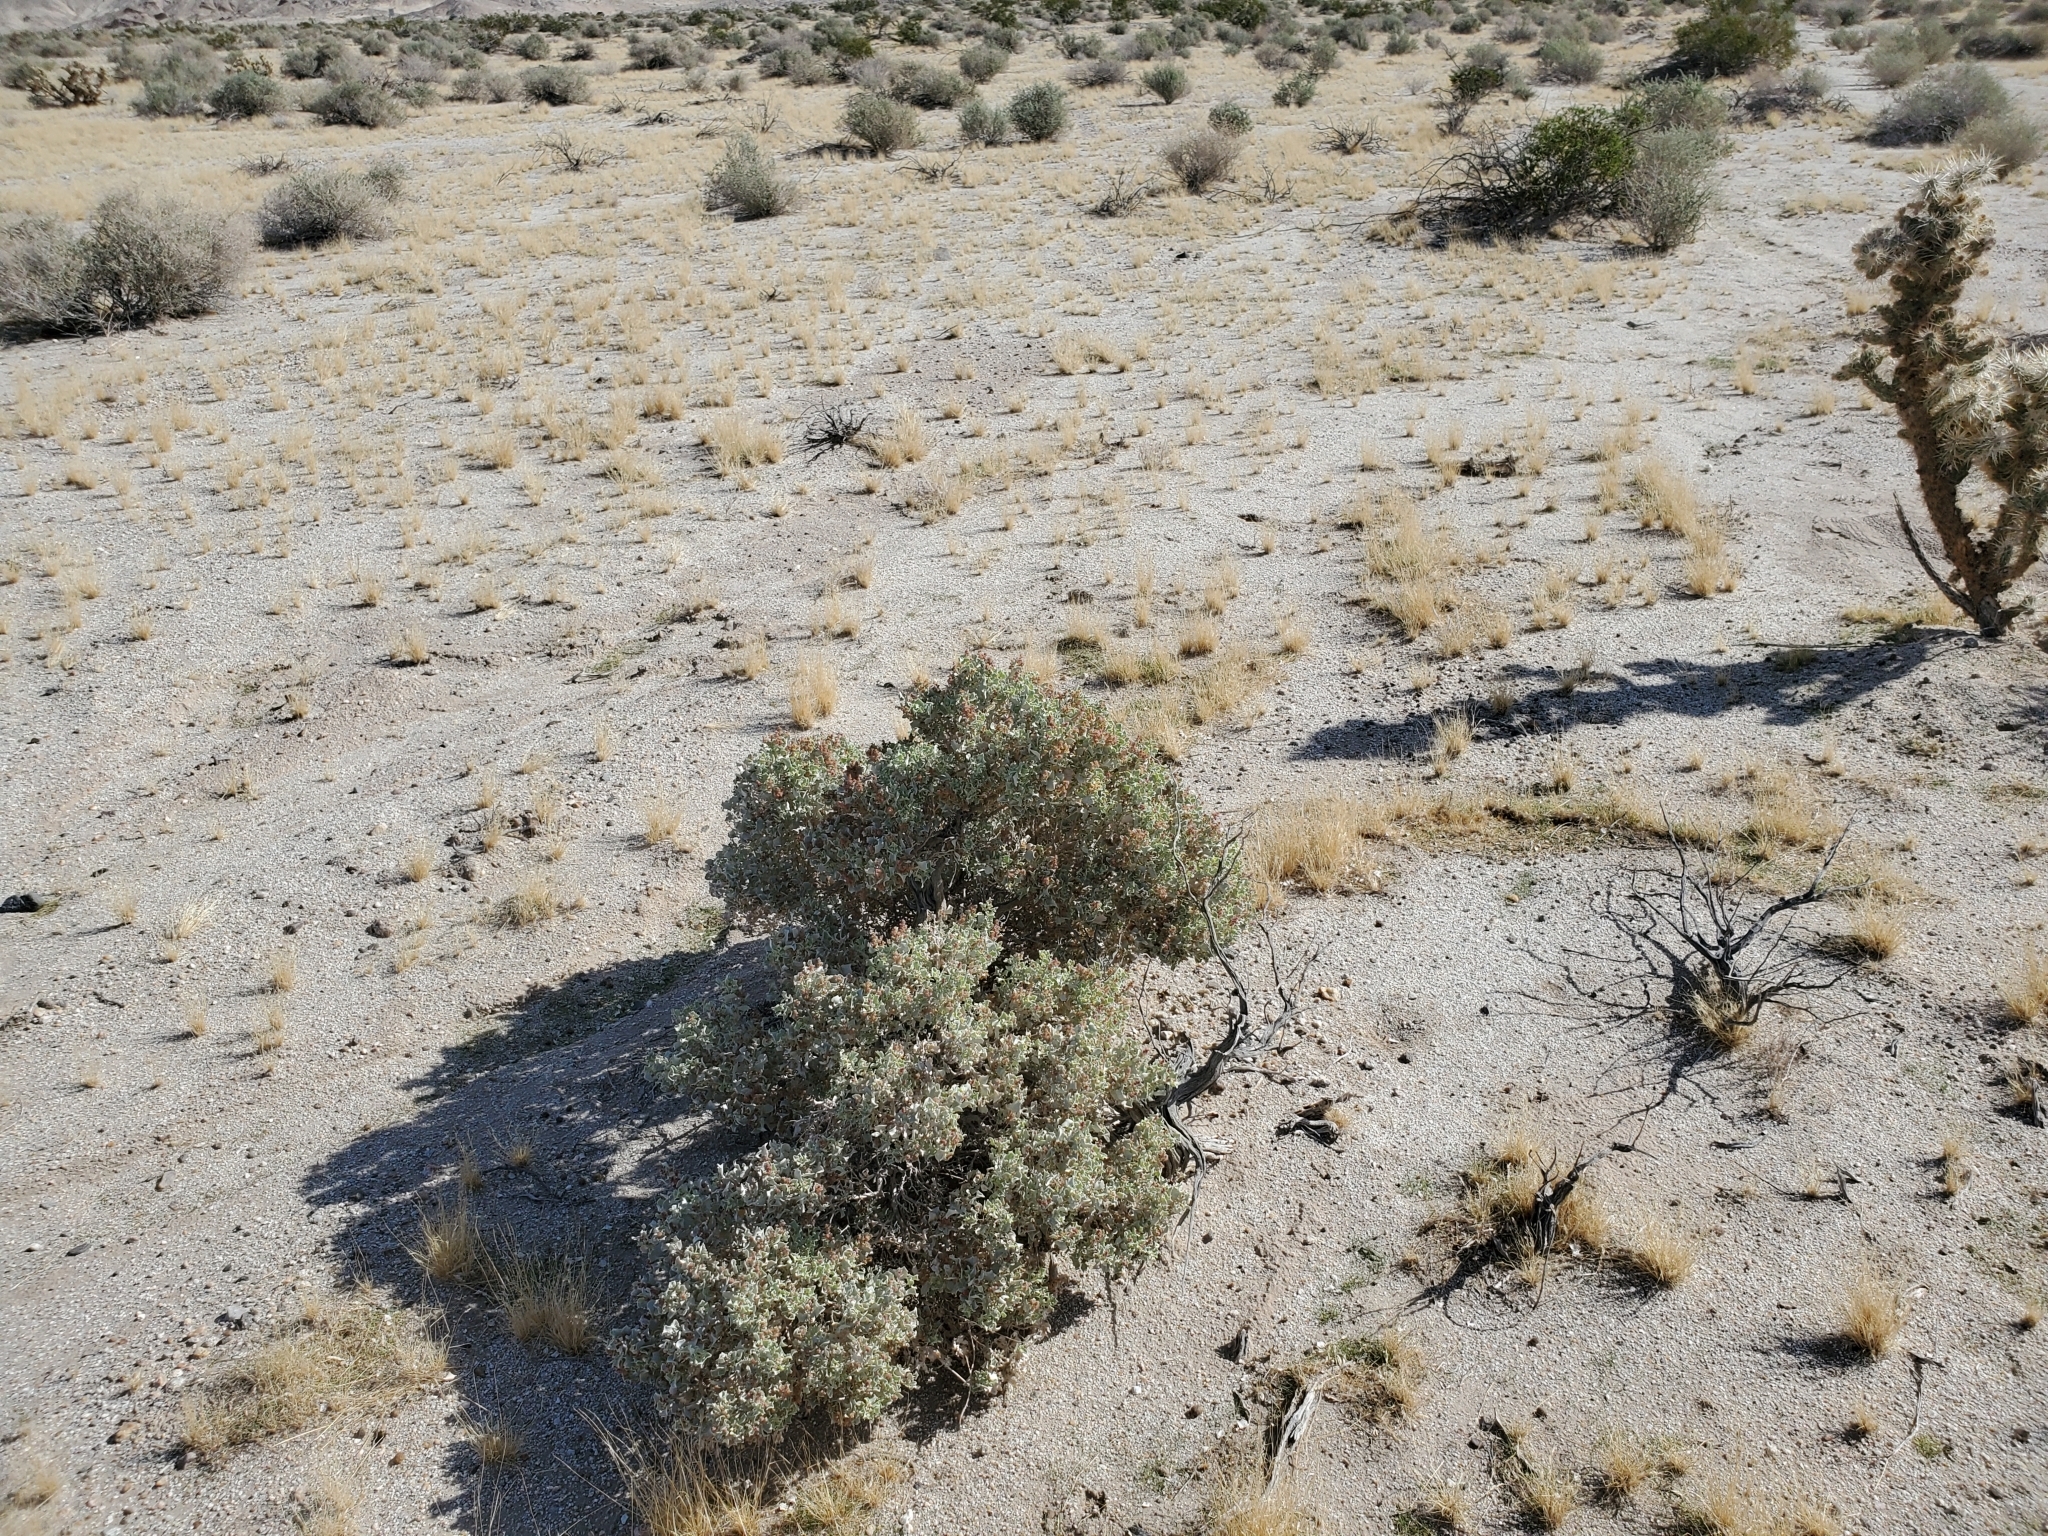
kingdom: Plantae
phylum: Tracheophyta
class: Magnoliopsida
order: Caryophyllales
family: Amaranthaceae
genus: Atriplex
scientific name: Atriplex hymenelytra
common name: Desert-holly
